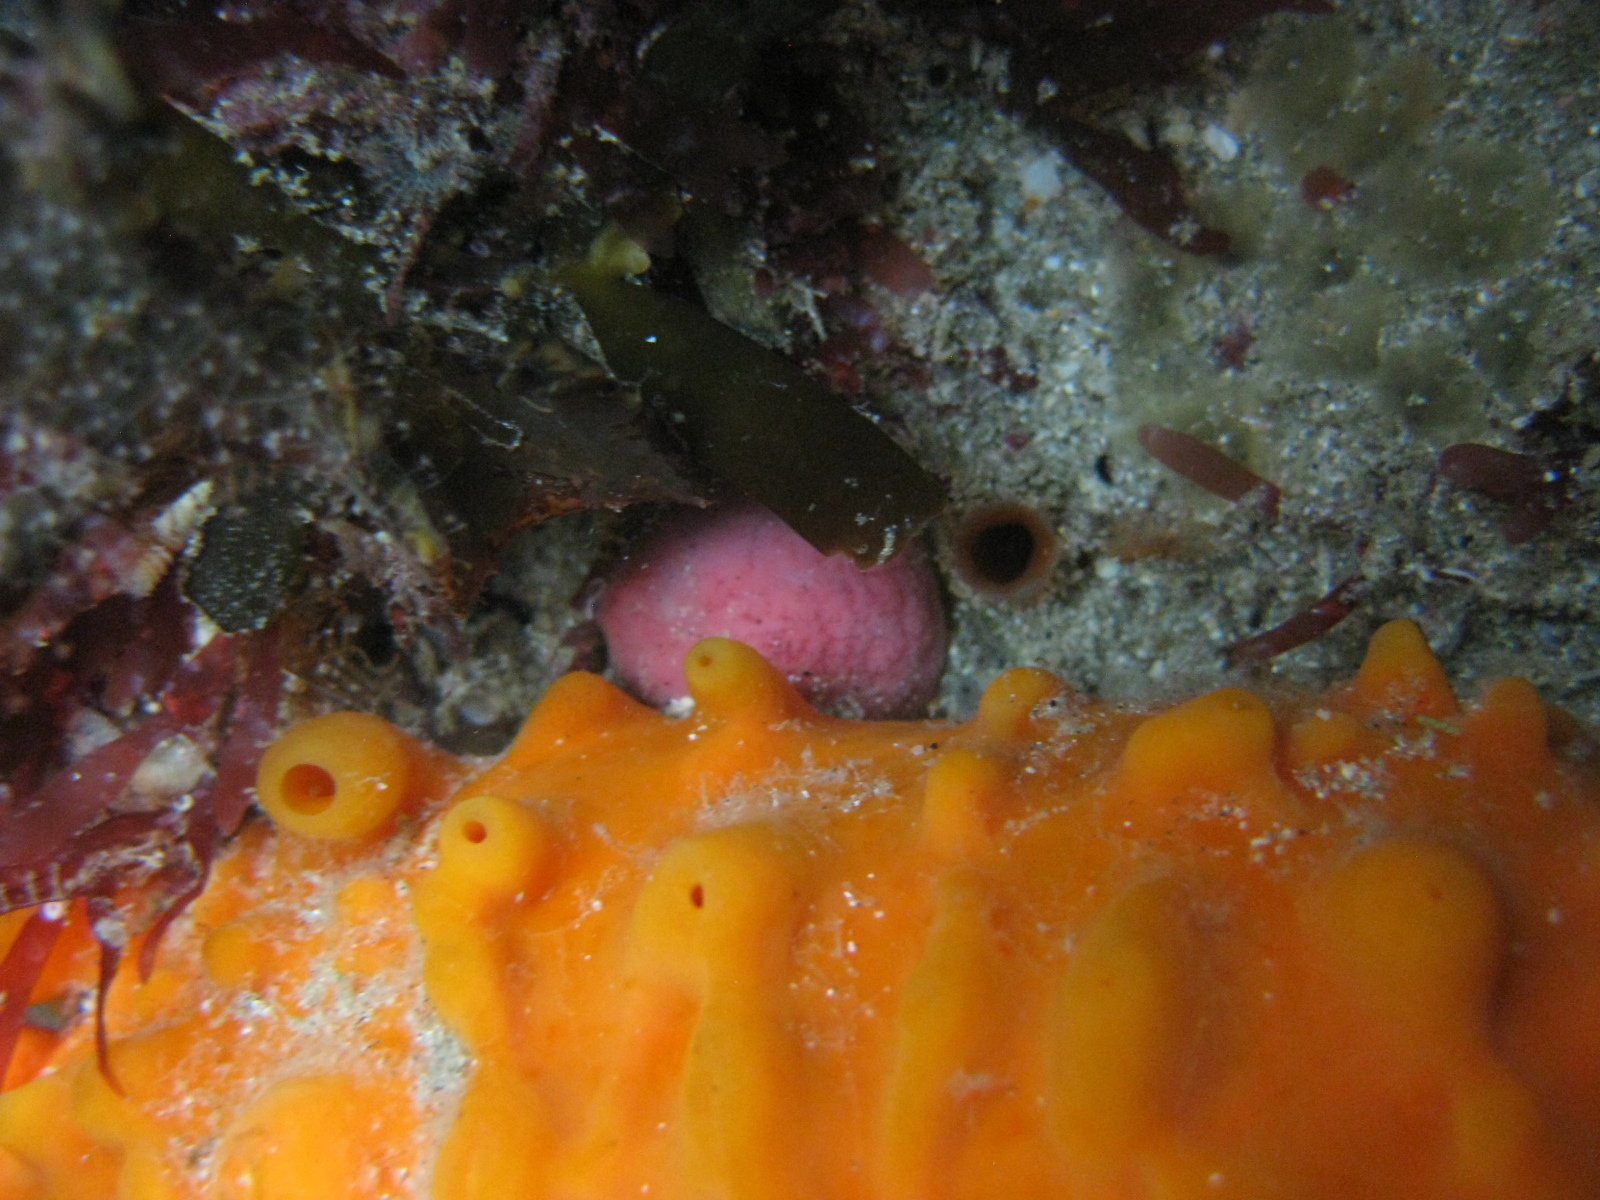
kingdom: Animalia
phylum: Porifera
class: Demospongiae
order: Tethyida
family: Tethyidae
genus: Tethya
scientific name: Tethya bergquistae
